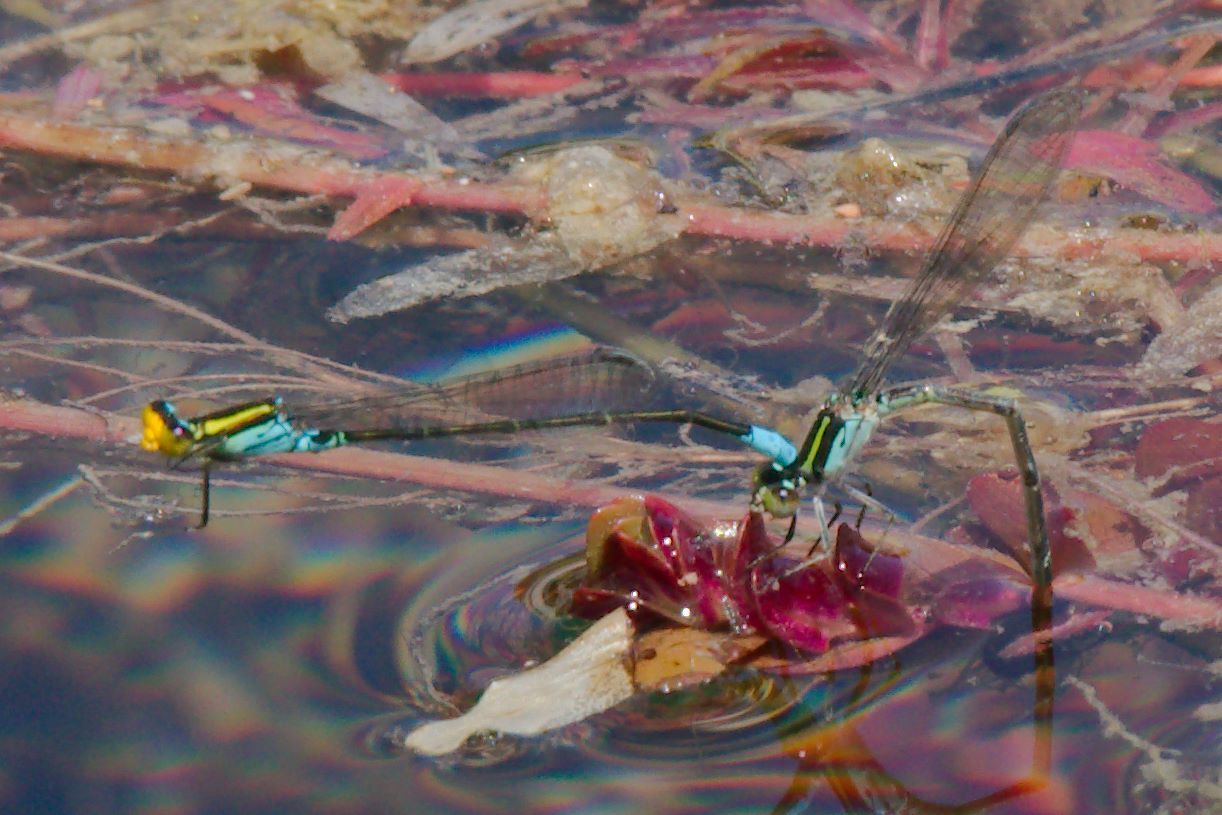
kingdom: Animalia
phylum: Arthropoda
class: Insecta
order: Odonata
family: Coenagrionidae
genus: Neoerythromma
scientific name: Neoerythromma cultellatum
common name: Caribbean yellowface
